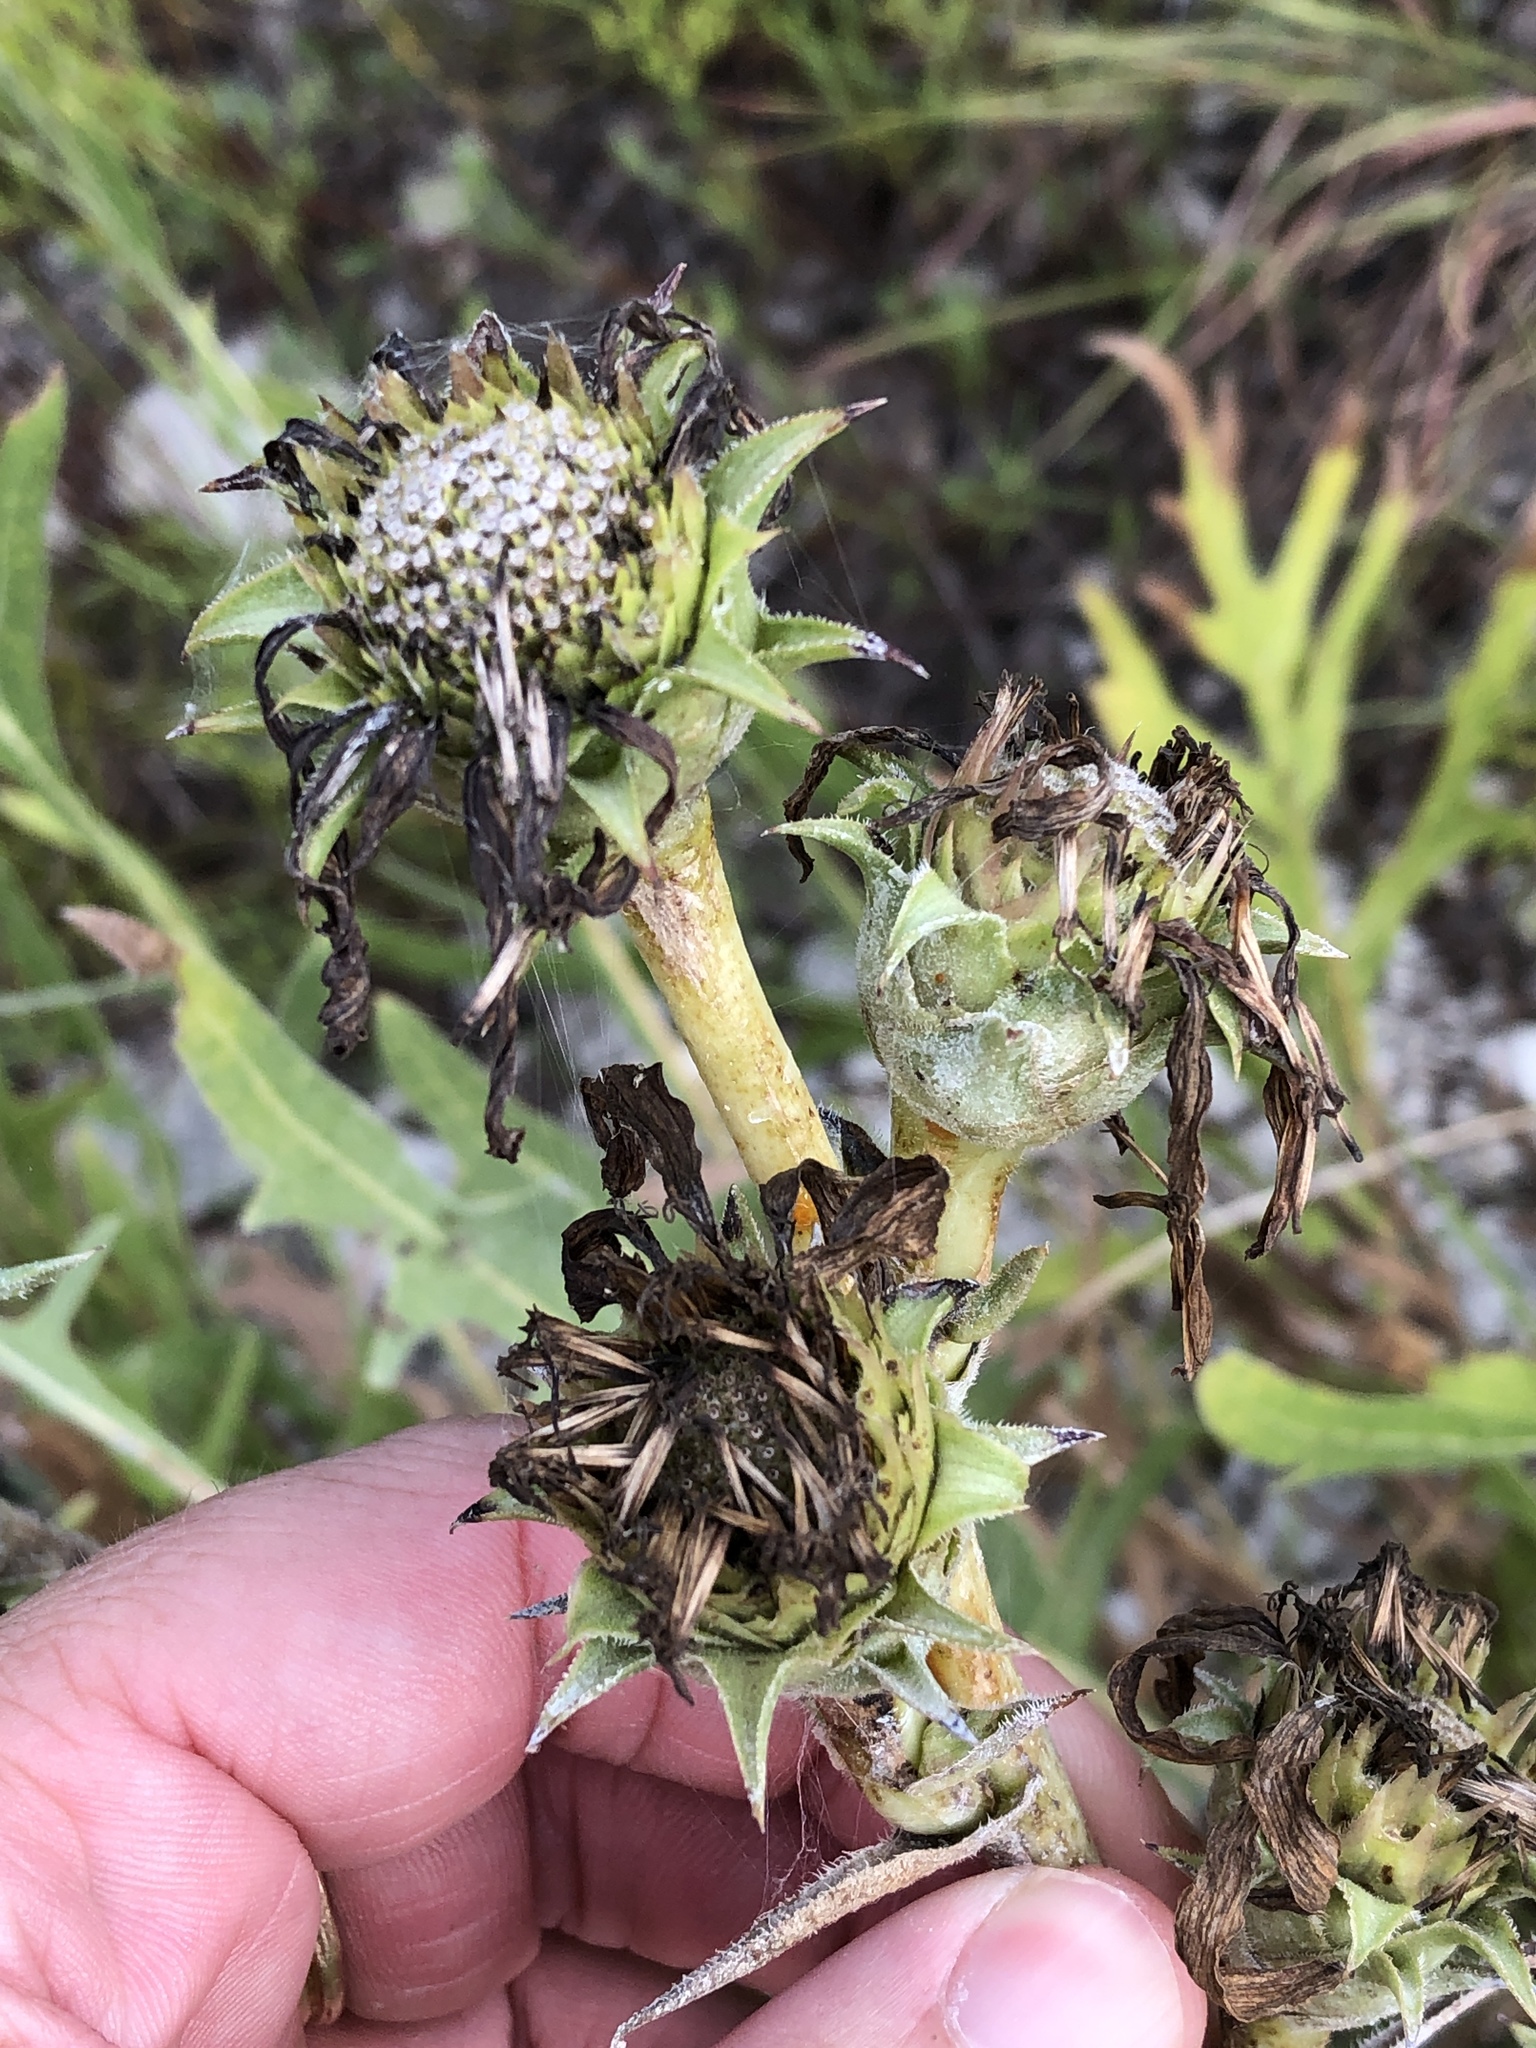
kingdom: Plantae
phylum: Tracheophyta
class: Magnoliopsida
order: Asterales
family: Asteraceae
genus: Silphium
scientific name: Silphium albiflorum
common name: White rosinweed
